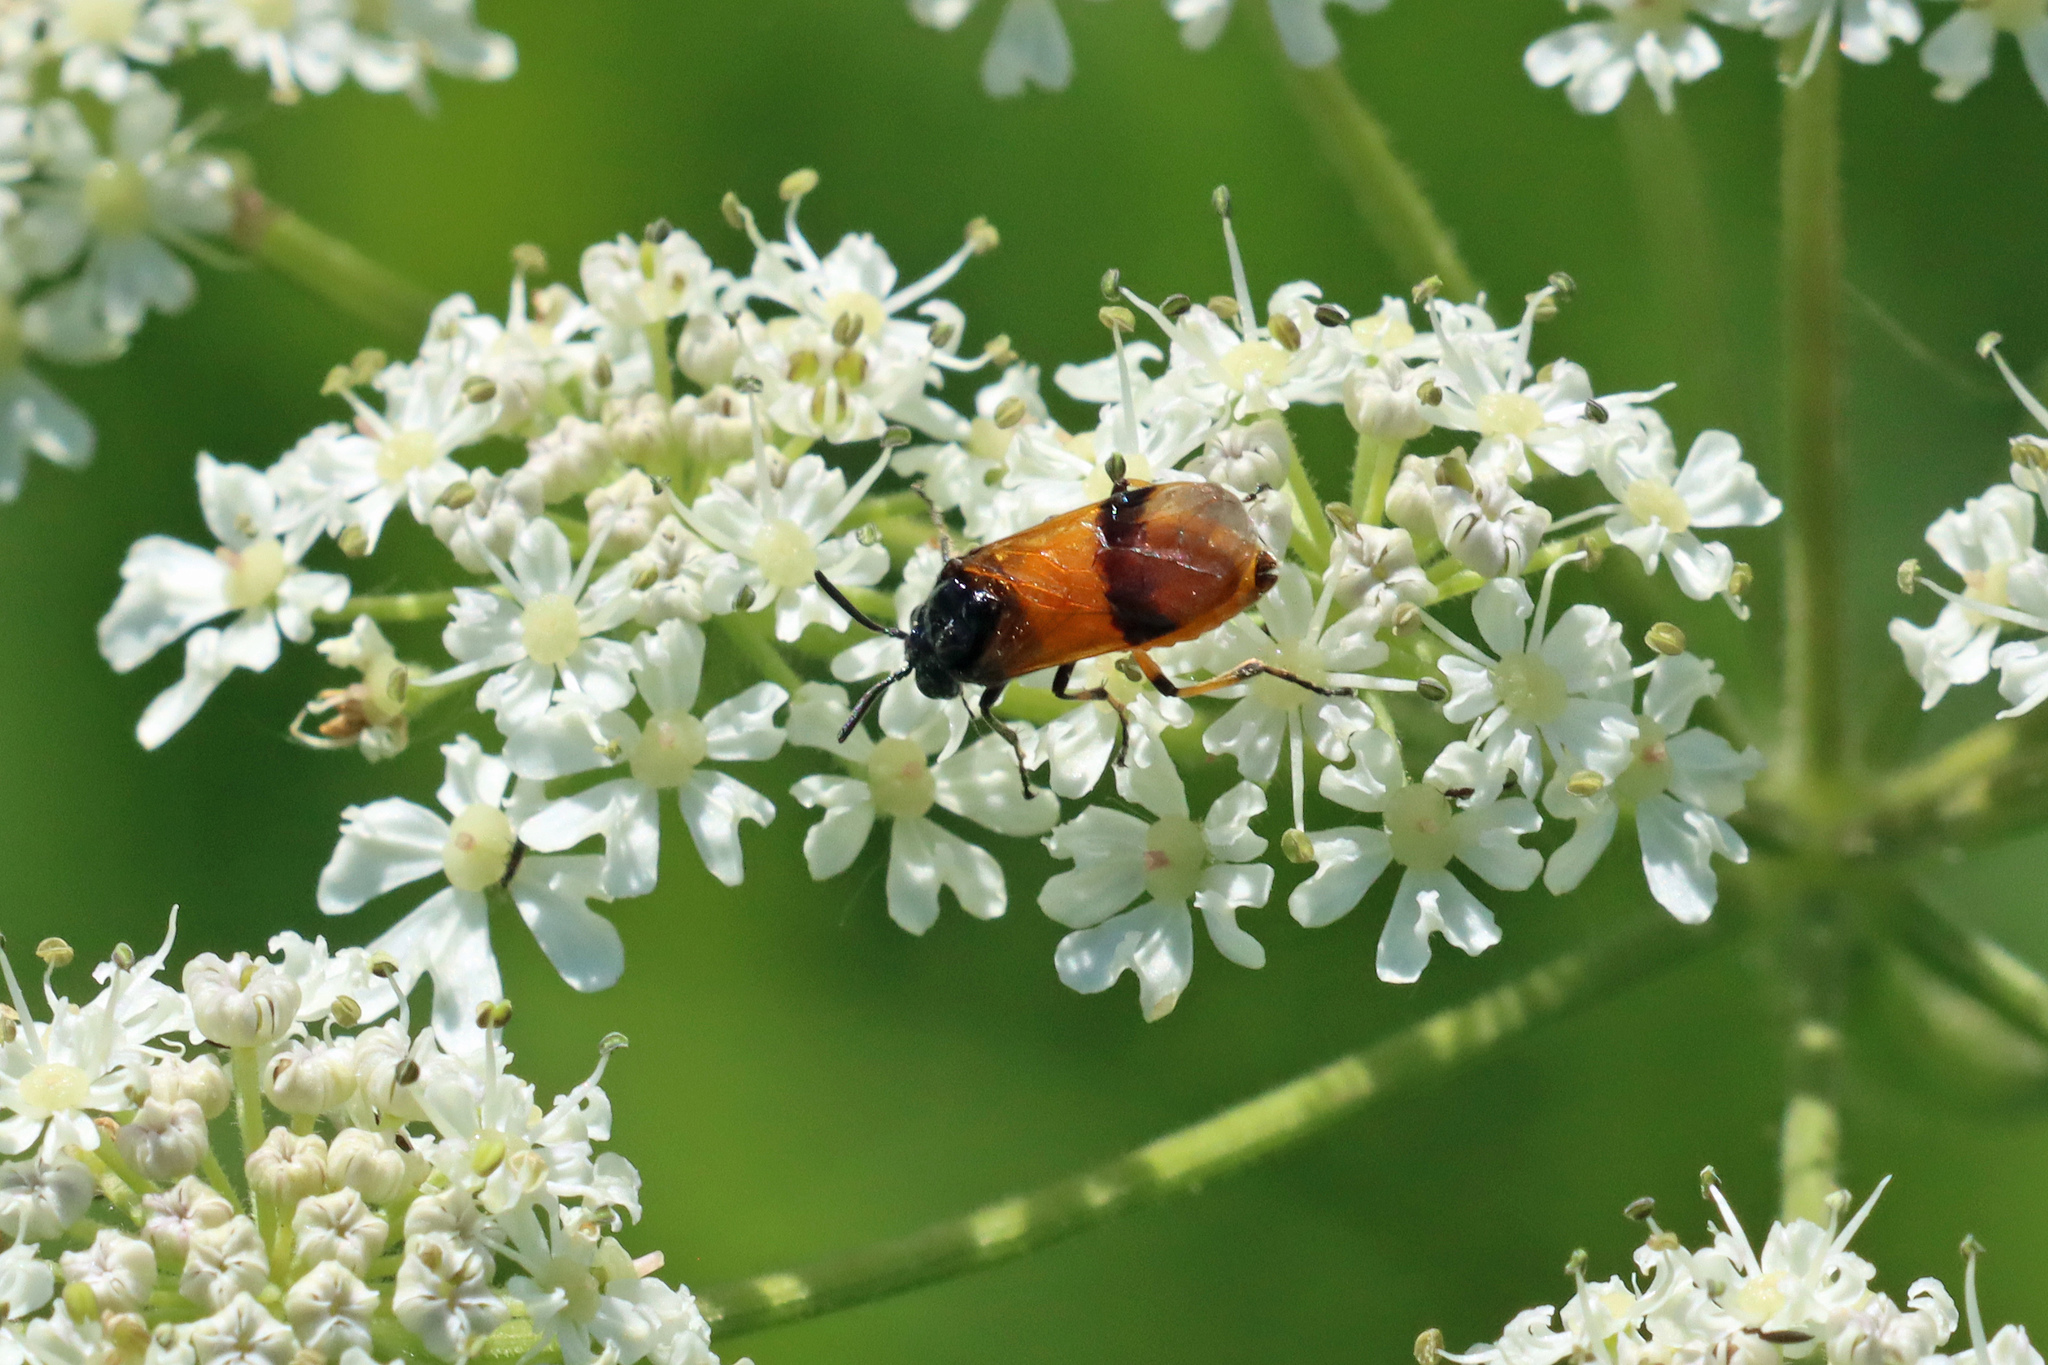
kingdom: Animalia
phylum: Arthropoda
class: Insecta
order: Hymenoptera
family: Argidae
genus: Arge
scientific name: Arge cyanocrocea
